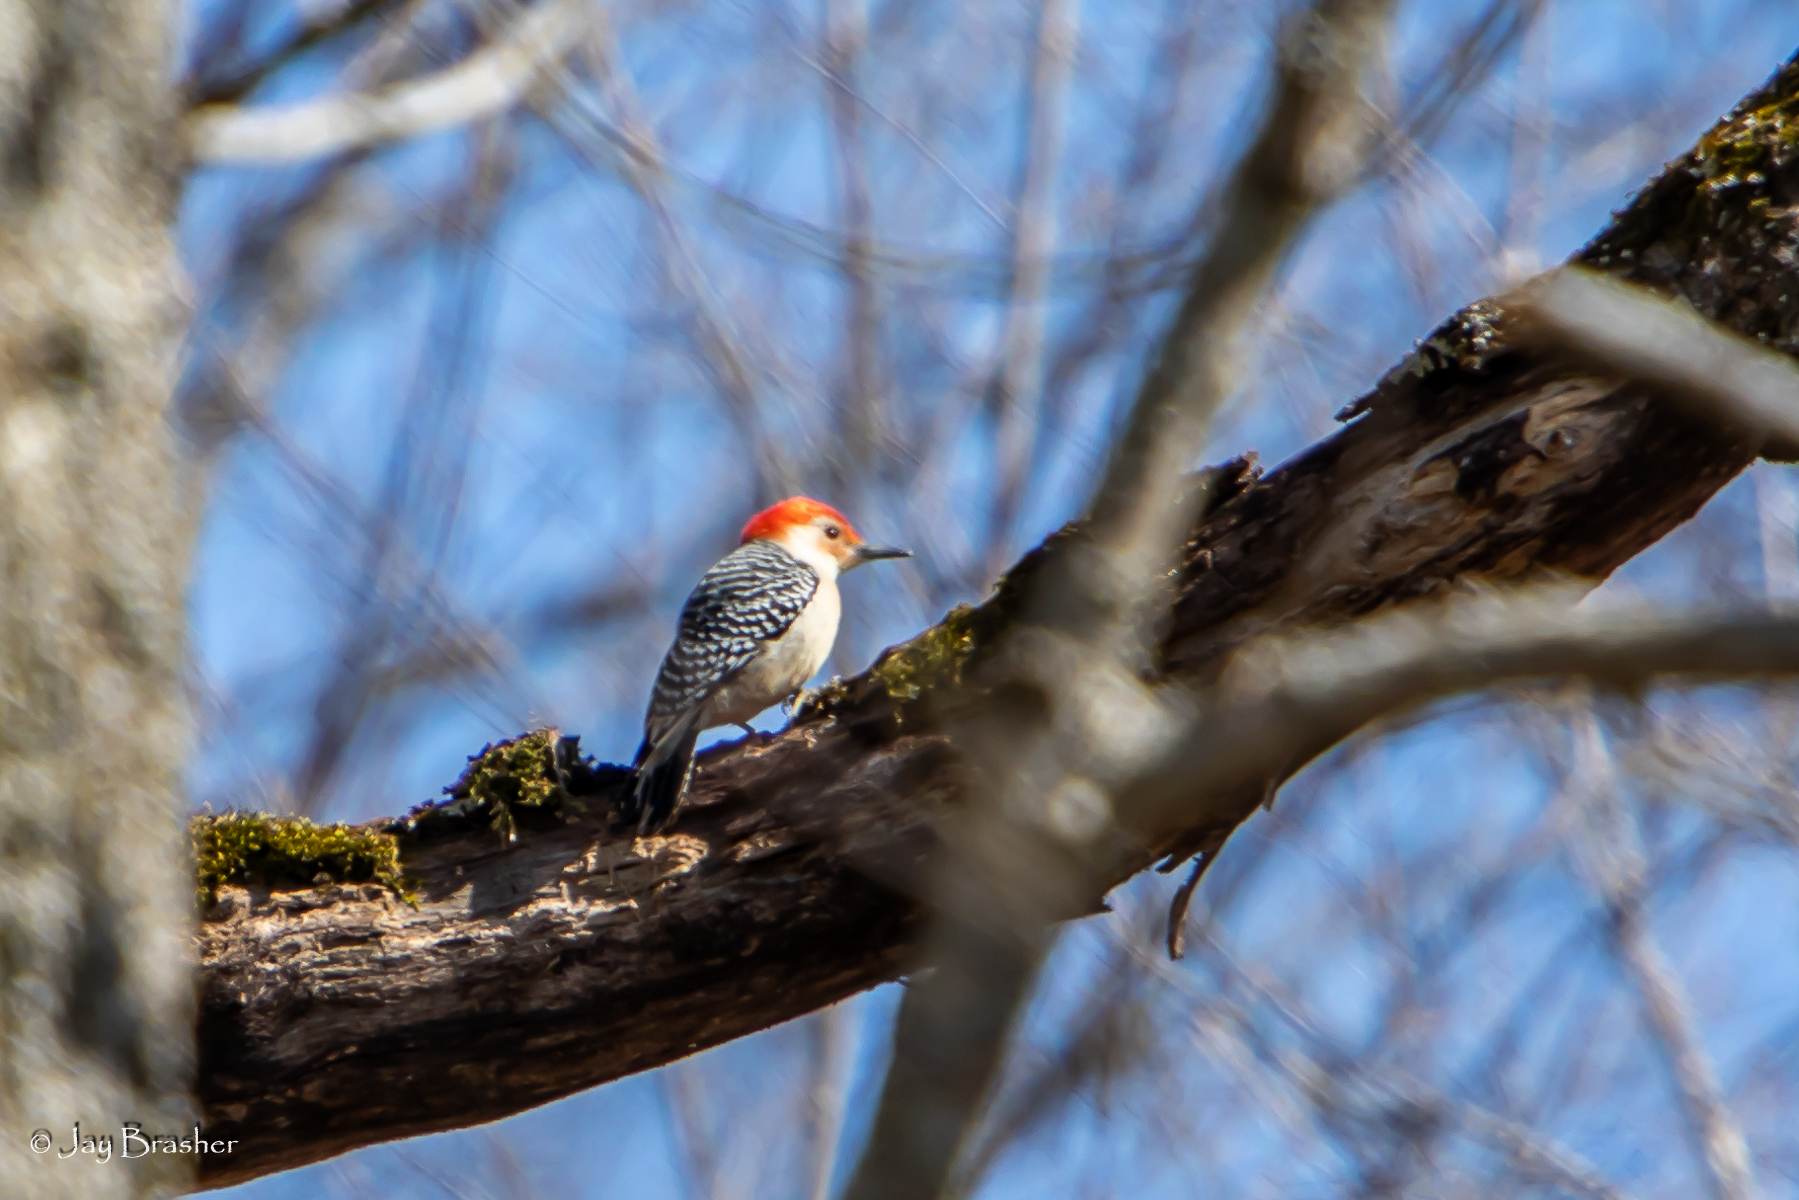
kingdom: Animalia
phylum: Chordata
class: Aves
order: Piciformes
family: Picidae
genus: Melanerpes
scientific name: Melanerpes carolinus
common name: Red-bellied woodpecker
